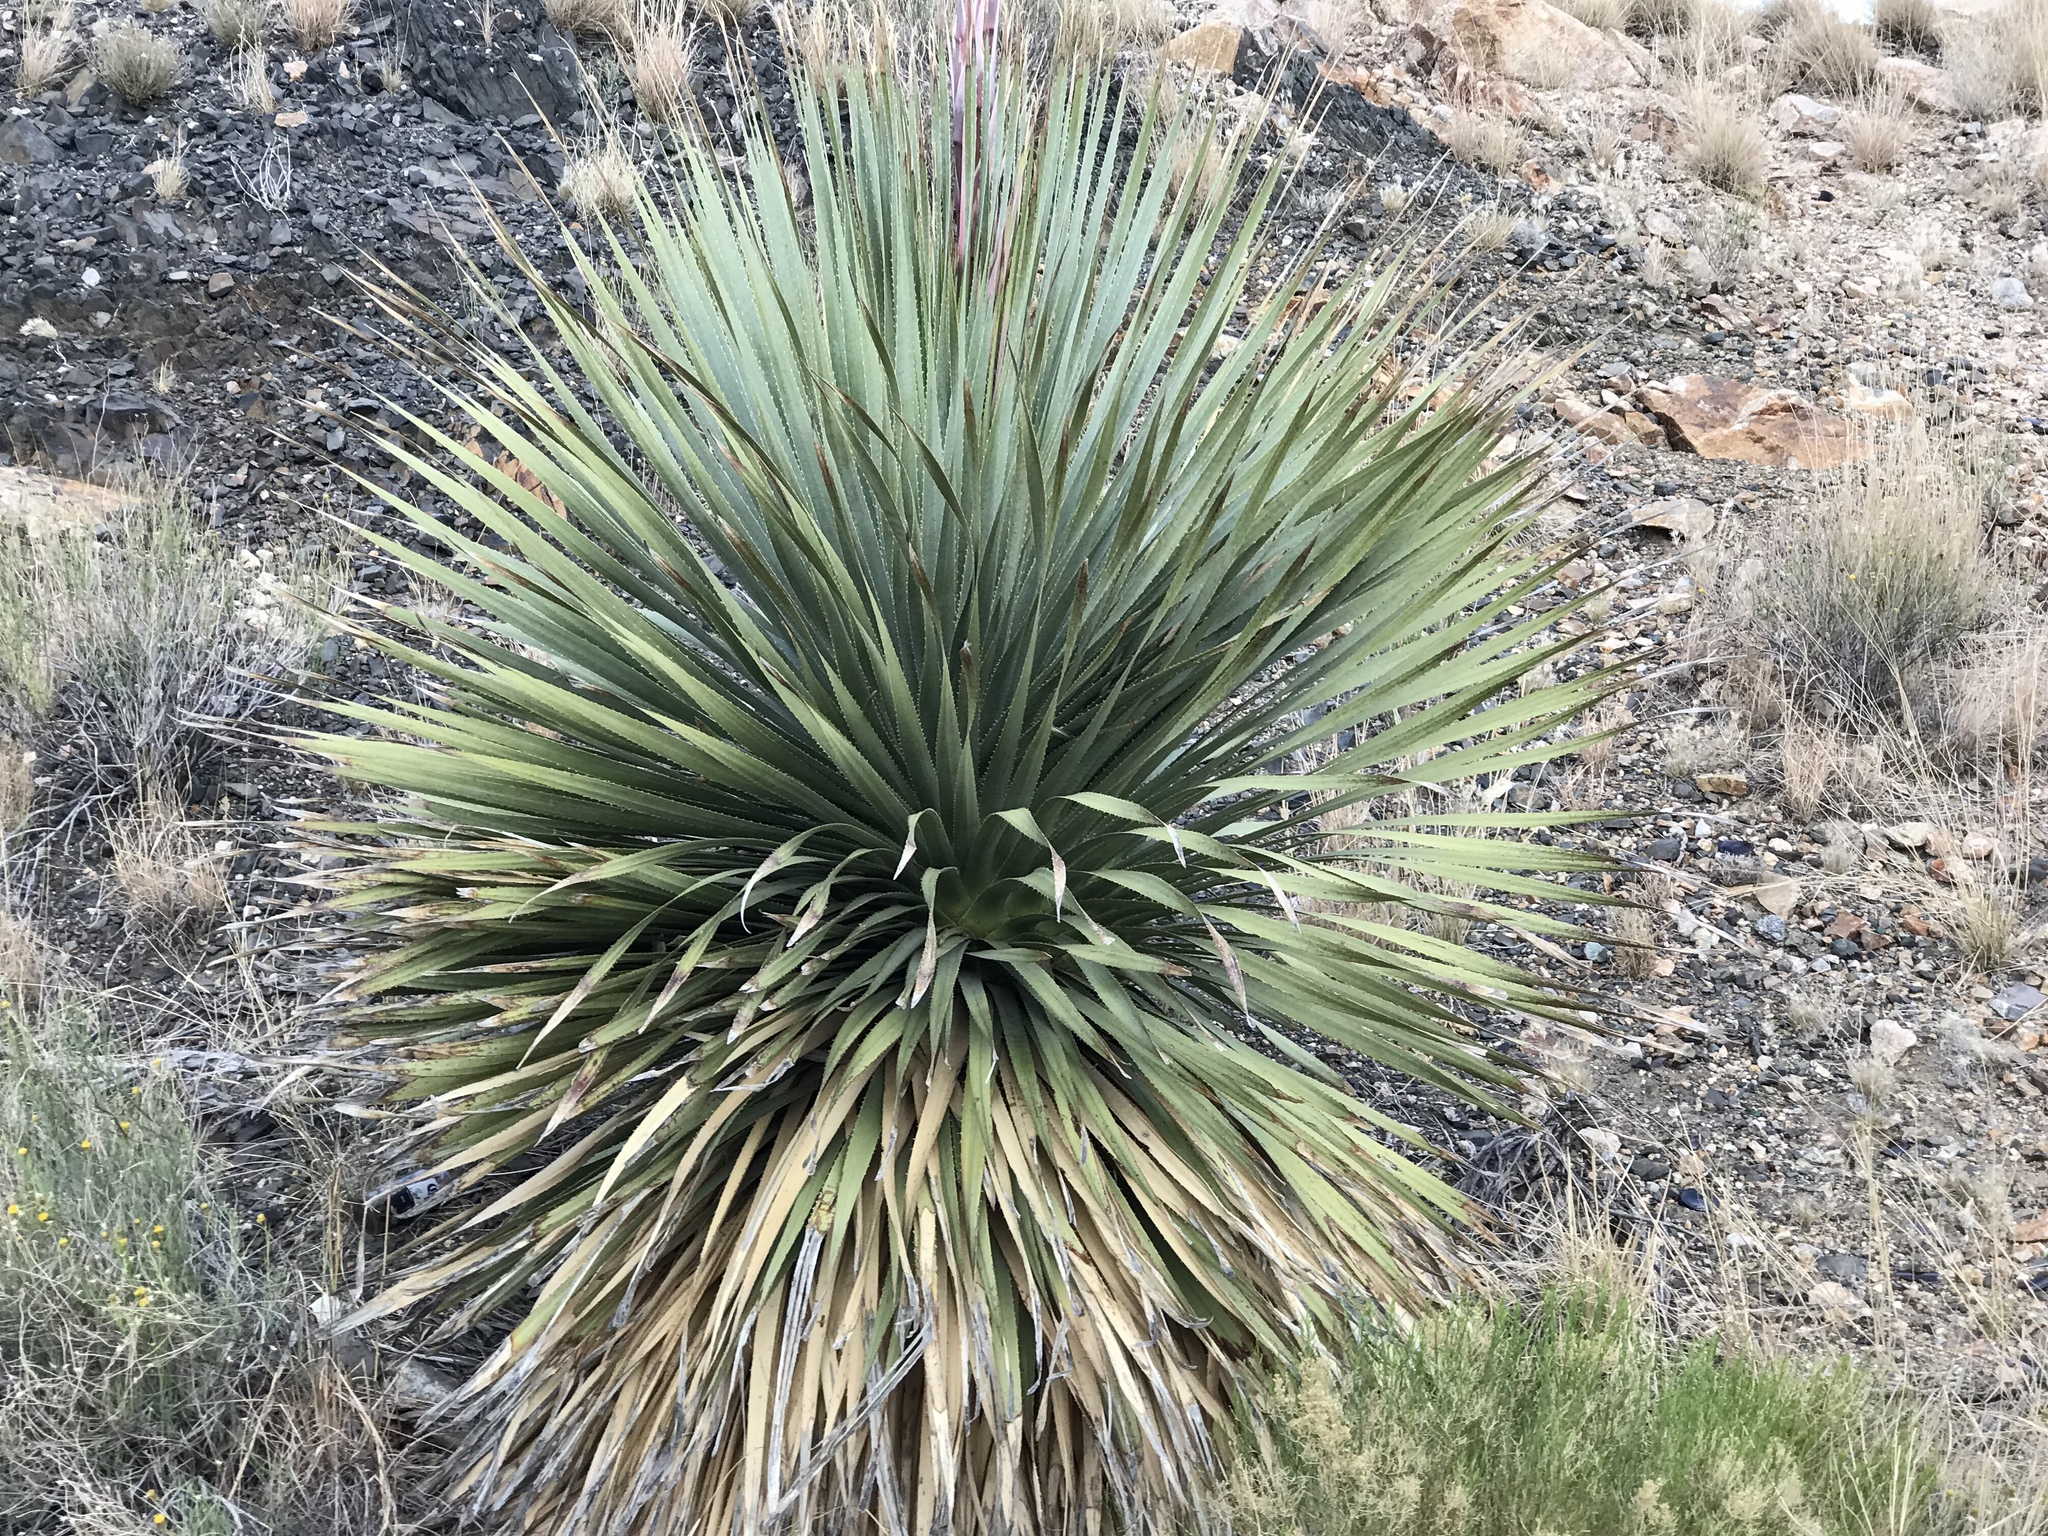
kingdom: Plantae
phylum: Tracheophyta
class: Liliopsida
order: Asparagales
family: Asparagaceae
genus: Dasylirion
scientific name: Dasylirion wheeleri
